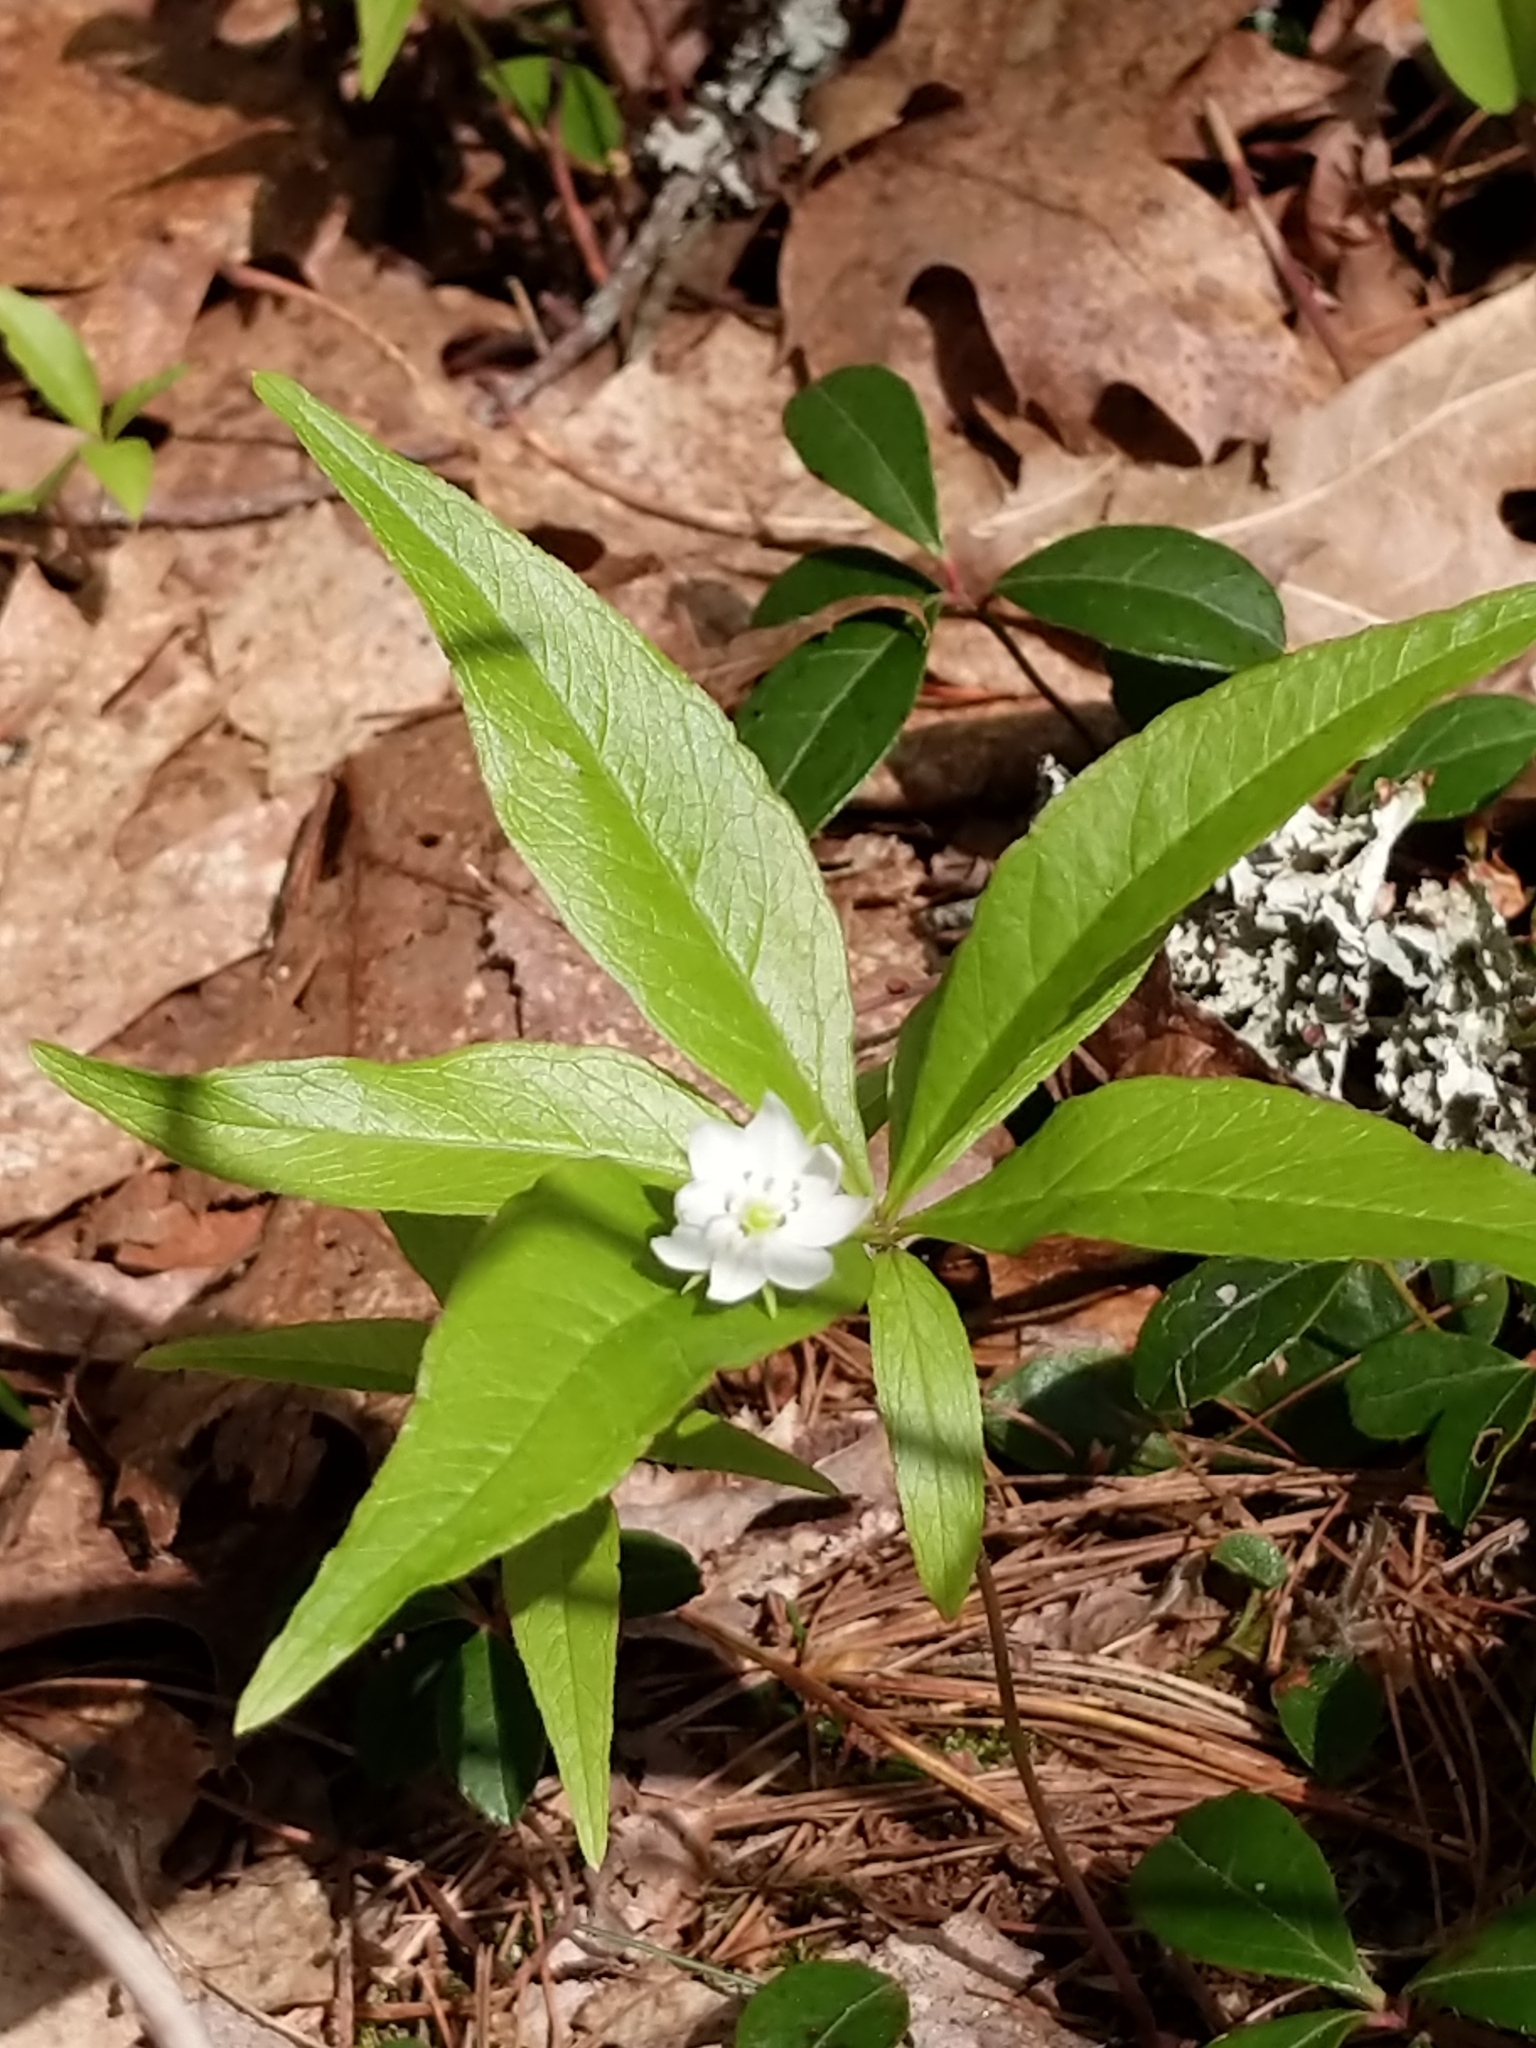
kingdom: Plantae
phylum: Tracheophyta
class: Magnoliopsida
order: Ericales
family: Primulaceae
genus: Lysimachia
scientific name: Lysimachia borealis
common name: American starflower
